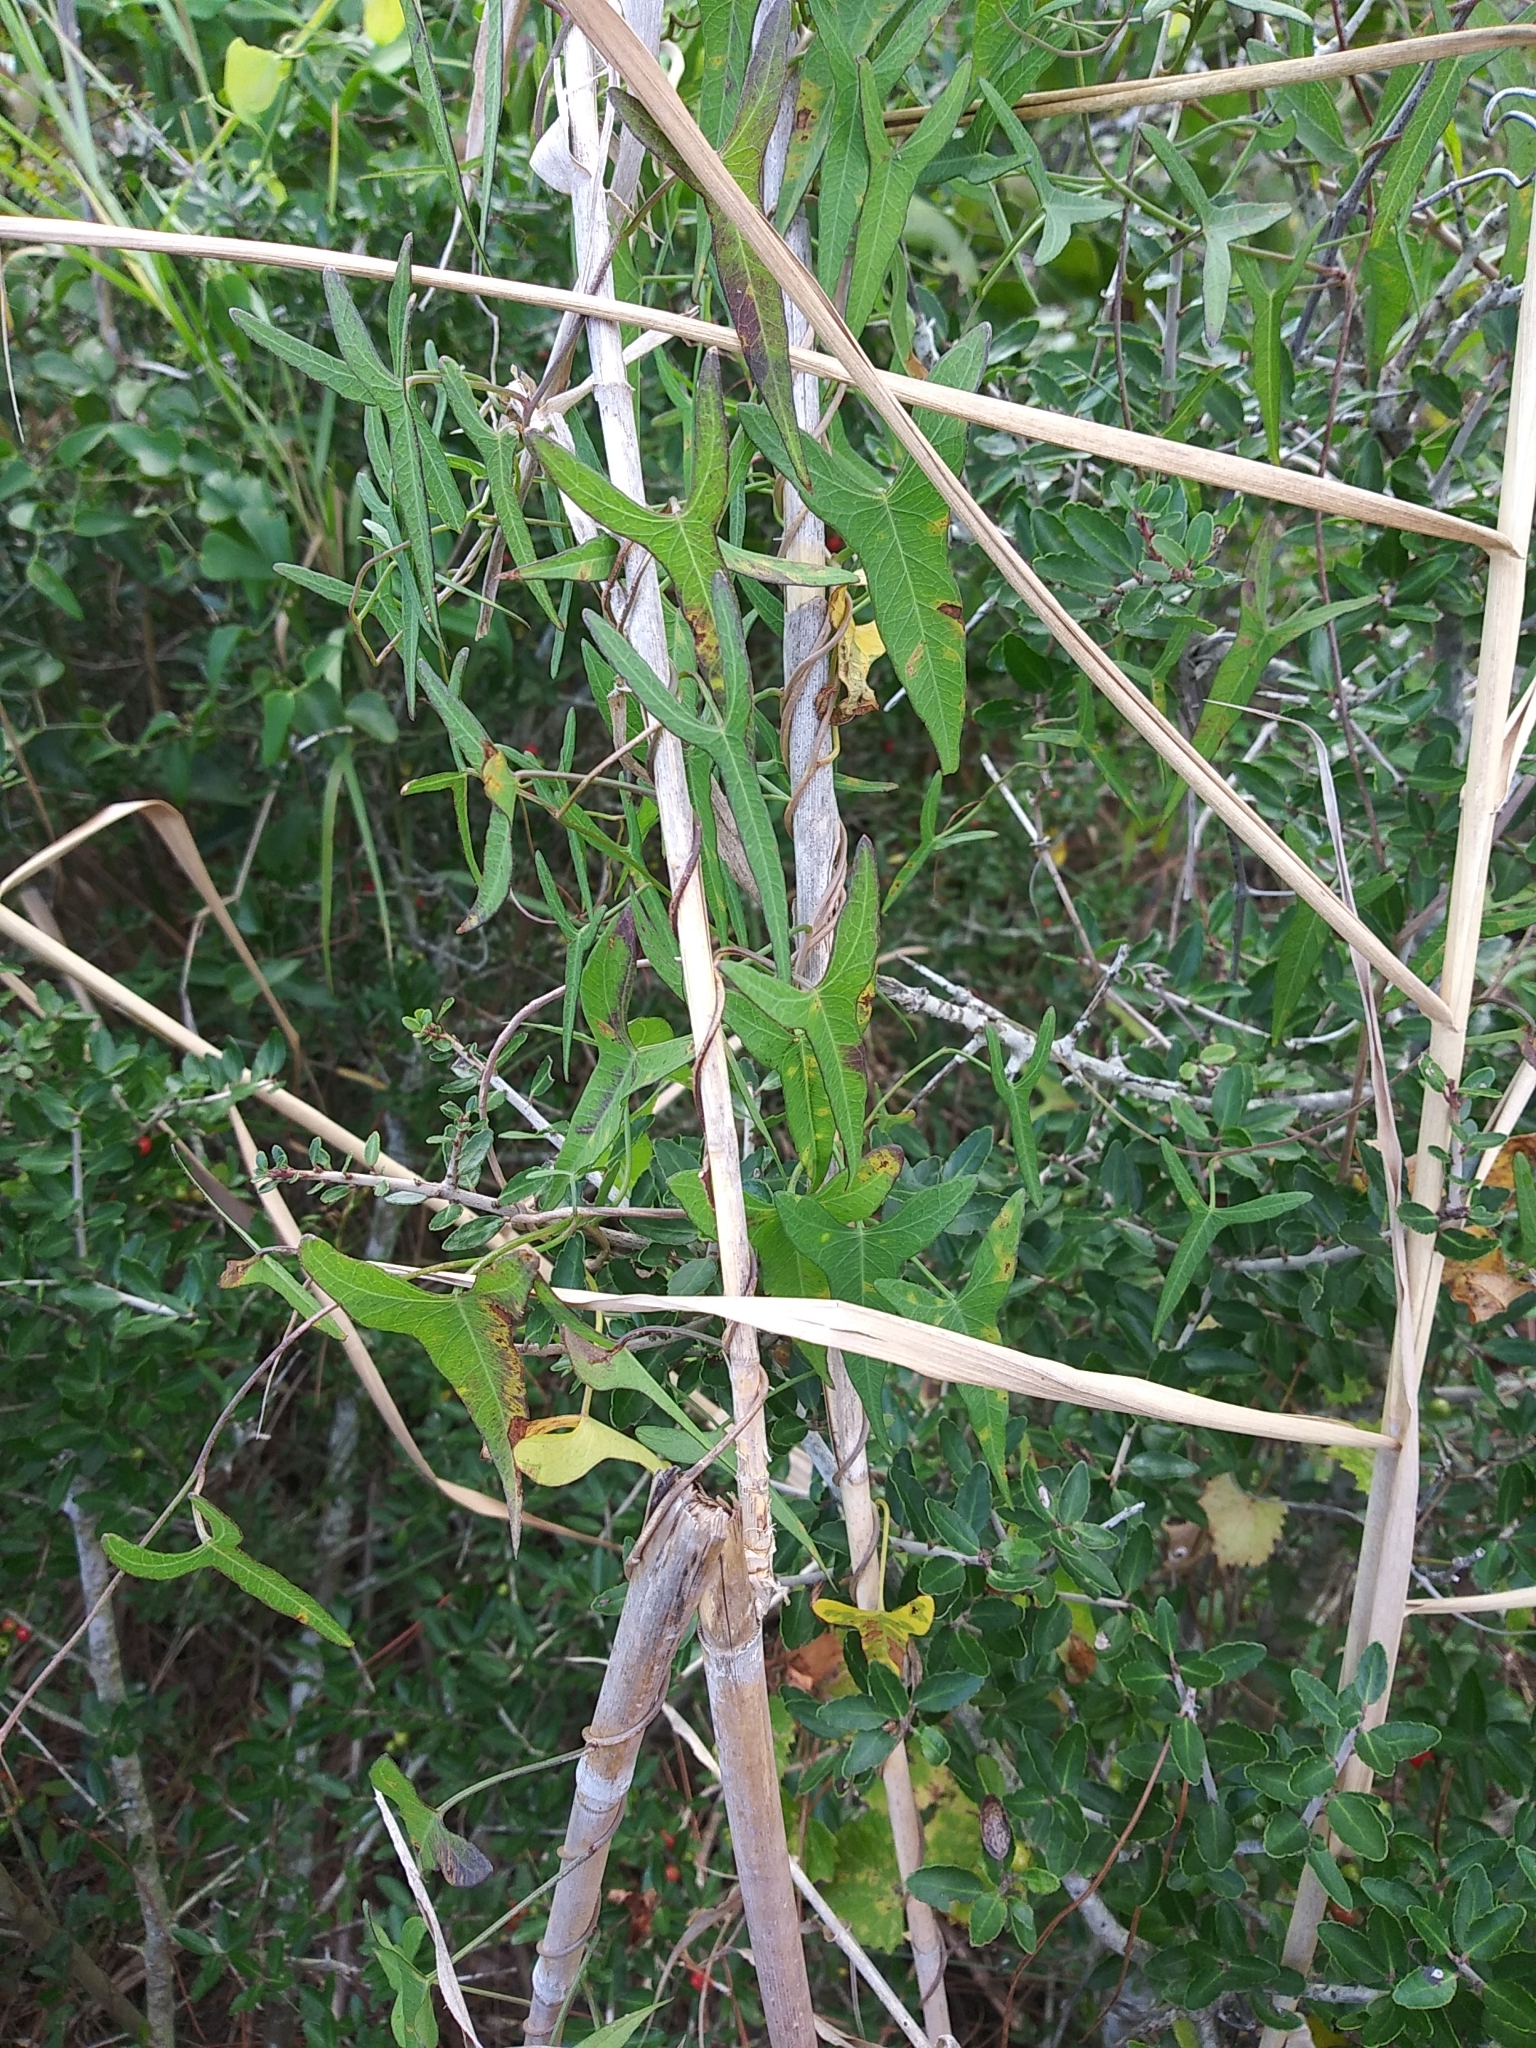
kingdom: Plantae
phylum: Tracheophyta
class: Magnoliopsida
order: Solanales
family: Convolvulaceae
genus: Ipomoea
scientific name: Ipomoea sagittata
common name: Saltmarsh morning glory
